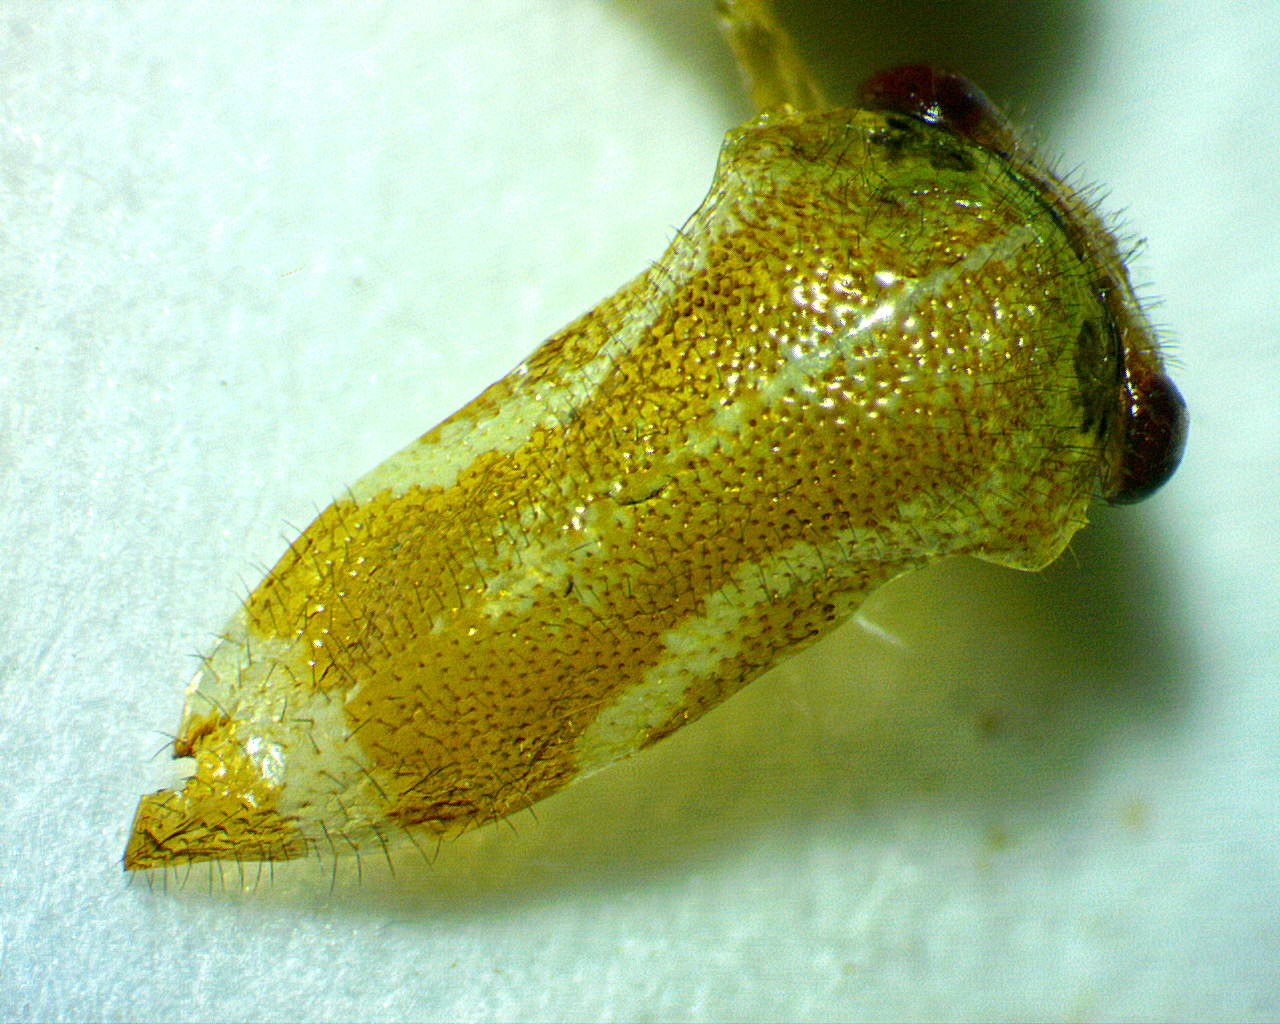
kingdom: Animalia
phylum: Arthropoda
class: Insecta
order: Hemiptera
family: Membracidae
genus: Ophiderma
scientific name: Ophiderma evelyna
